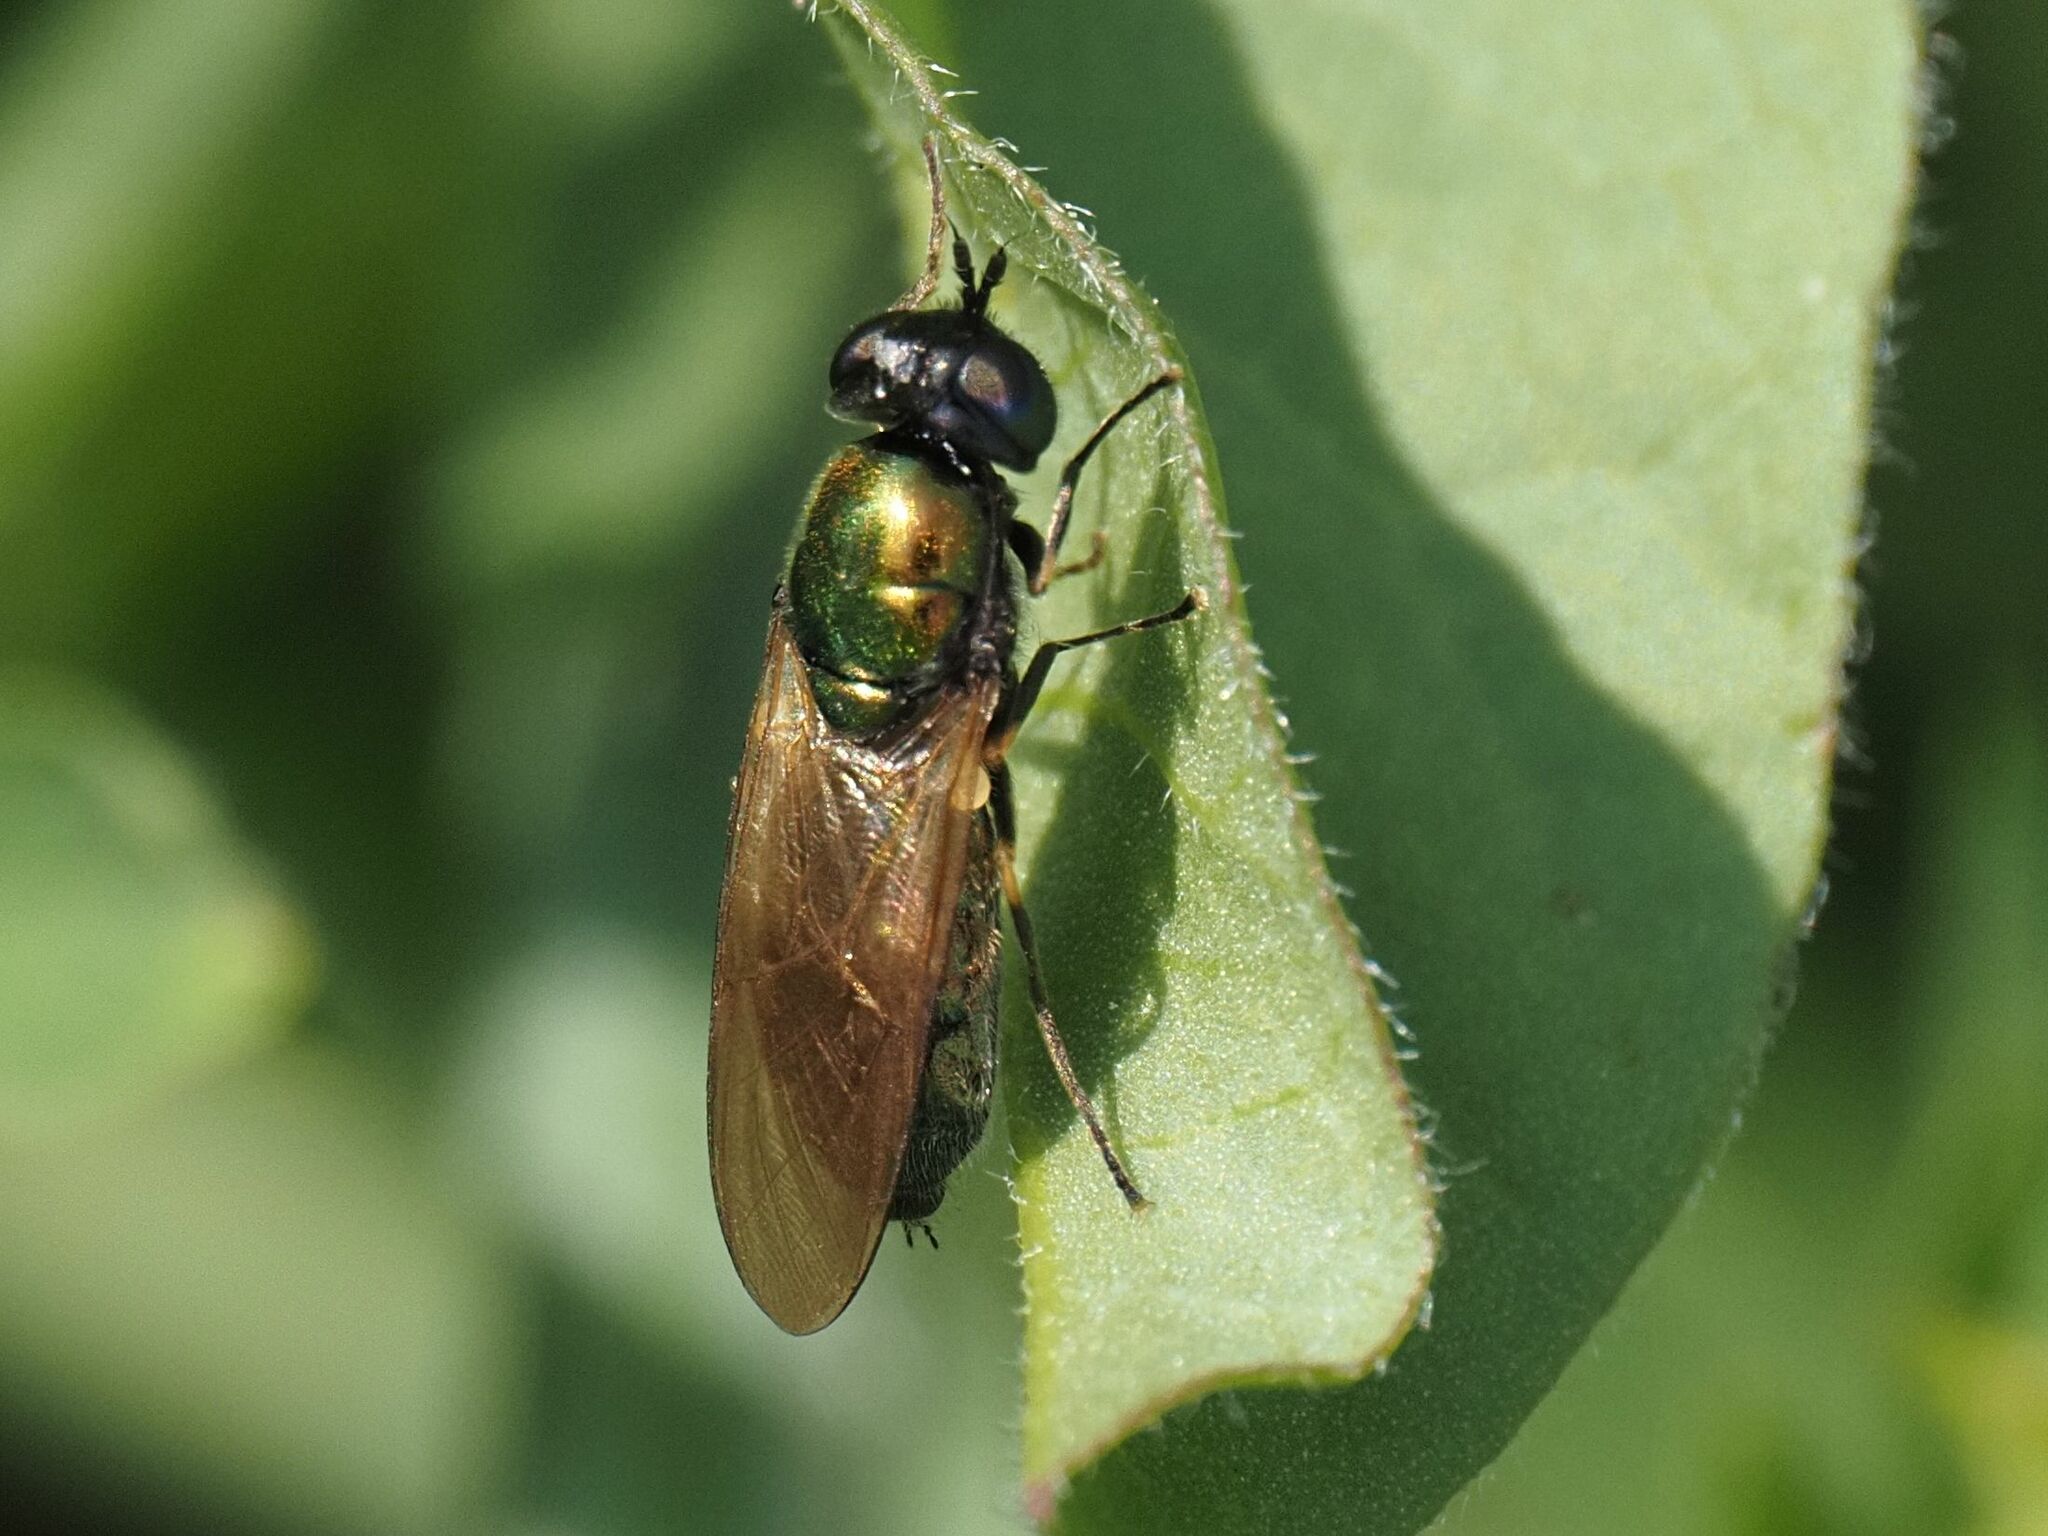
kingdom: Animalia
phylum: Arthropoda
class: Insecta
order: Diptera
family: Stratiomyidae
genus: Chloromyia
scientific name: Chloromyia formosa
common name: Soldier fly
